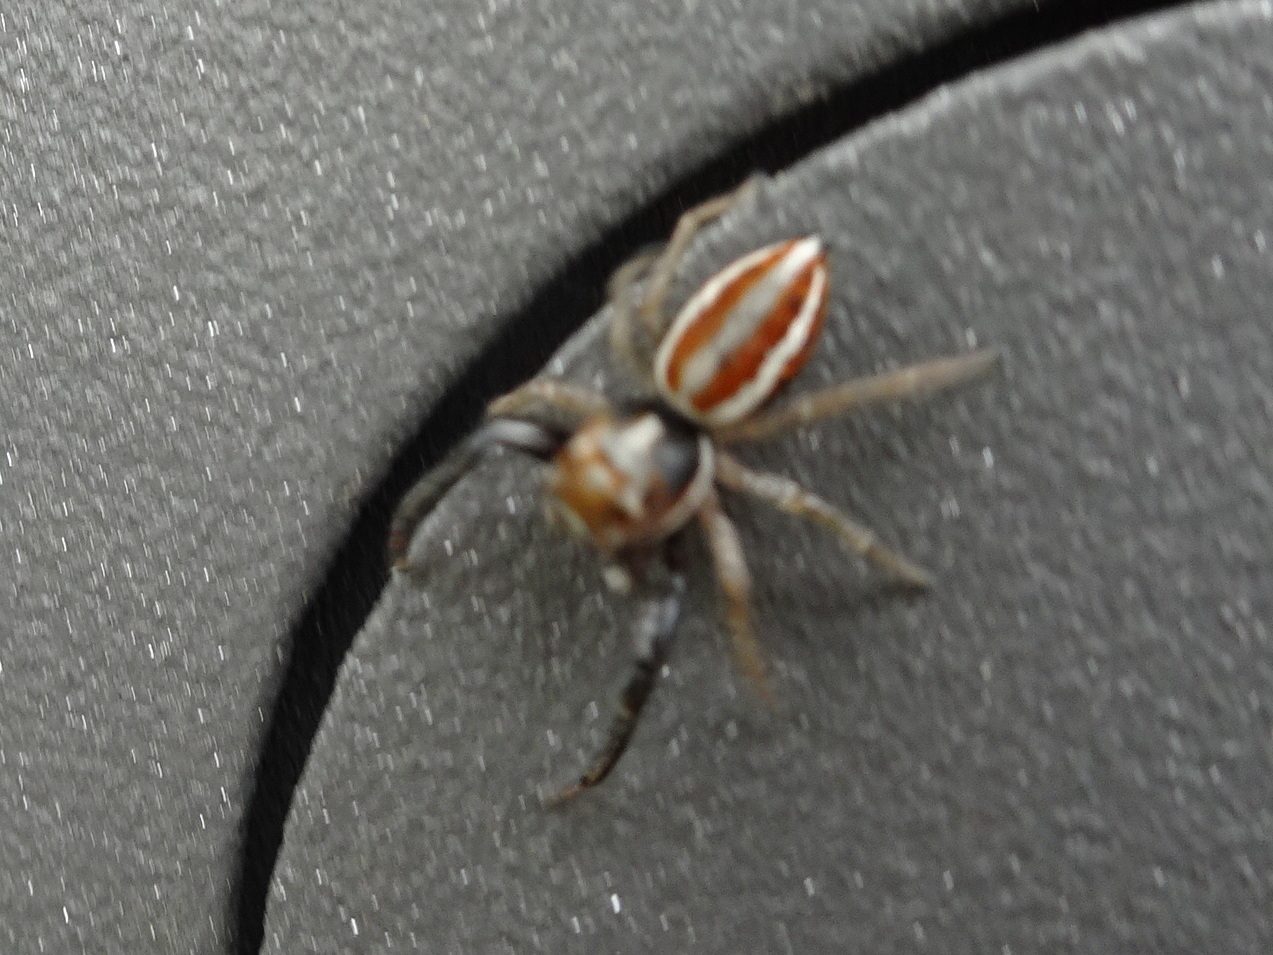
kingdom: Animalia
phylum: Arthropoda
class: Arachnida
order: Araneae
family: Salticidae
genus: Icius
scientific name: Icius hamatus
